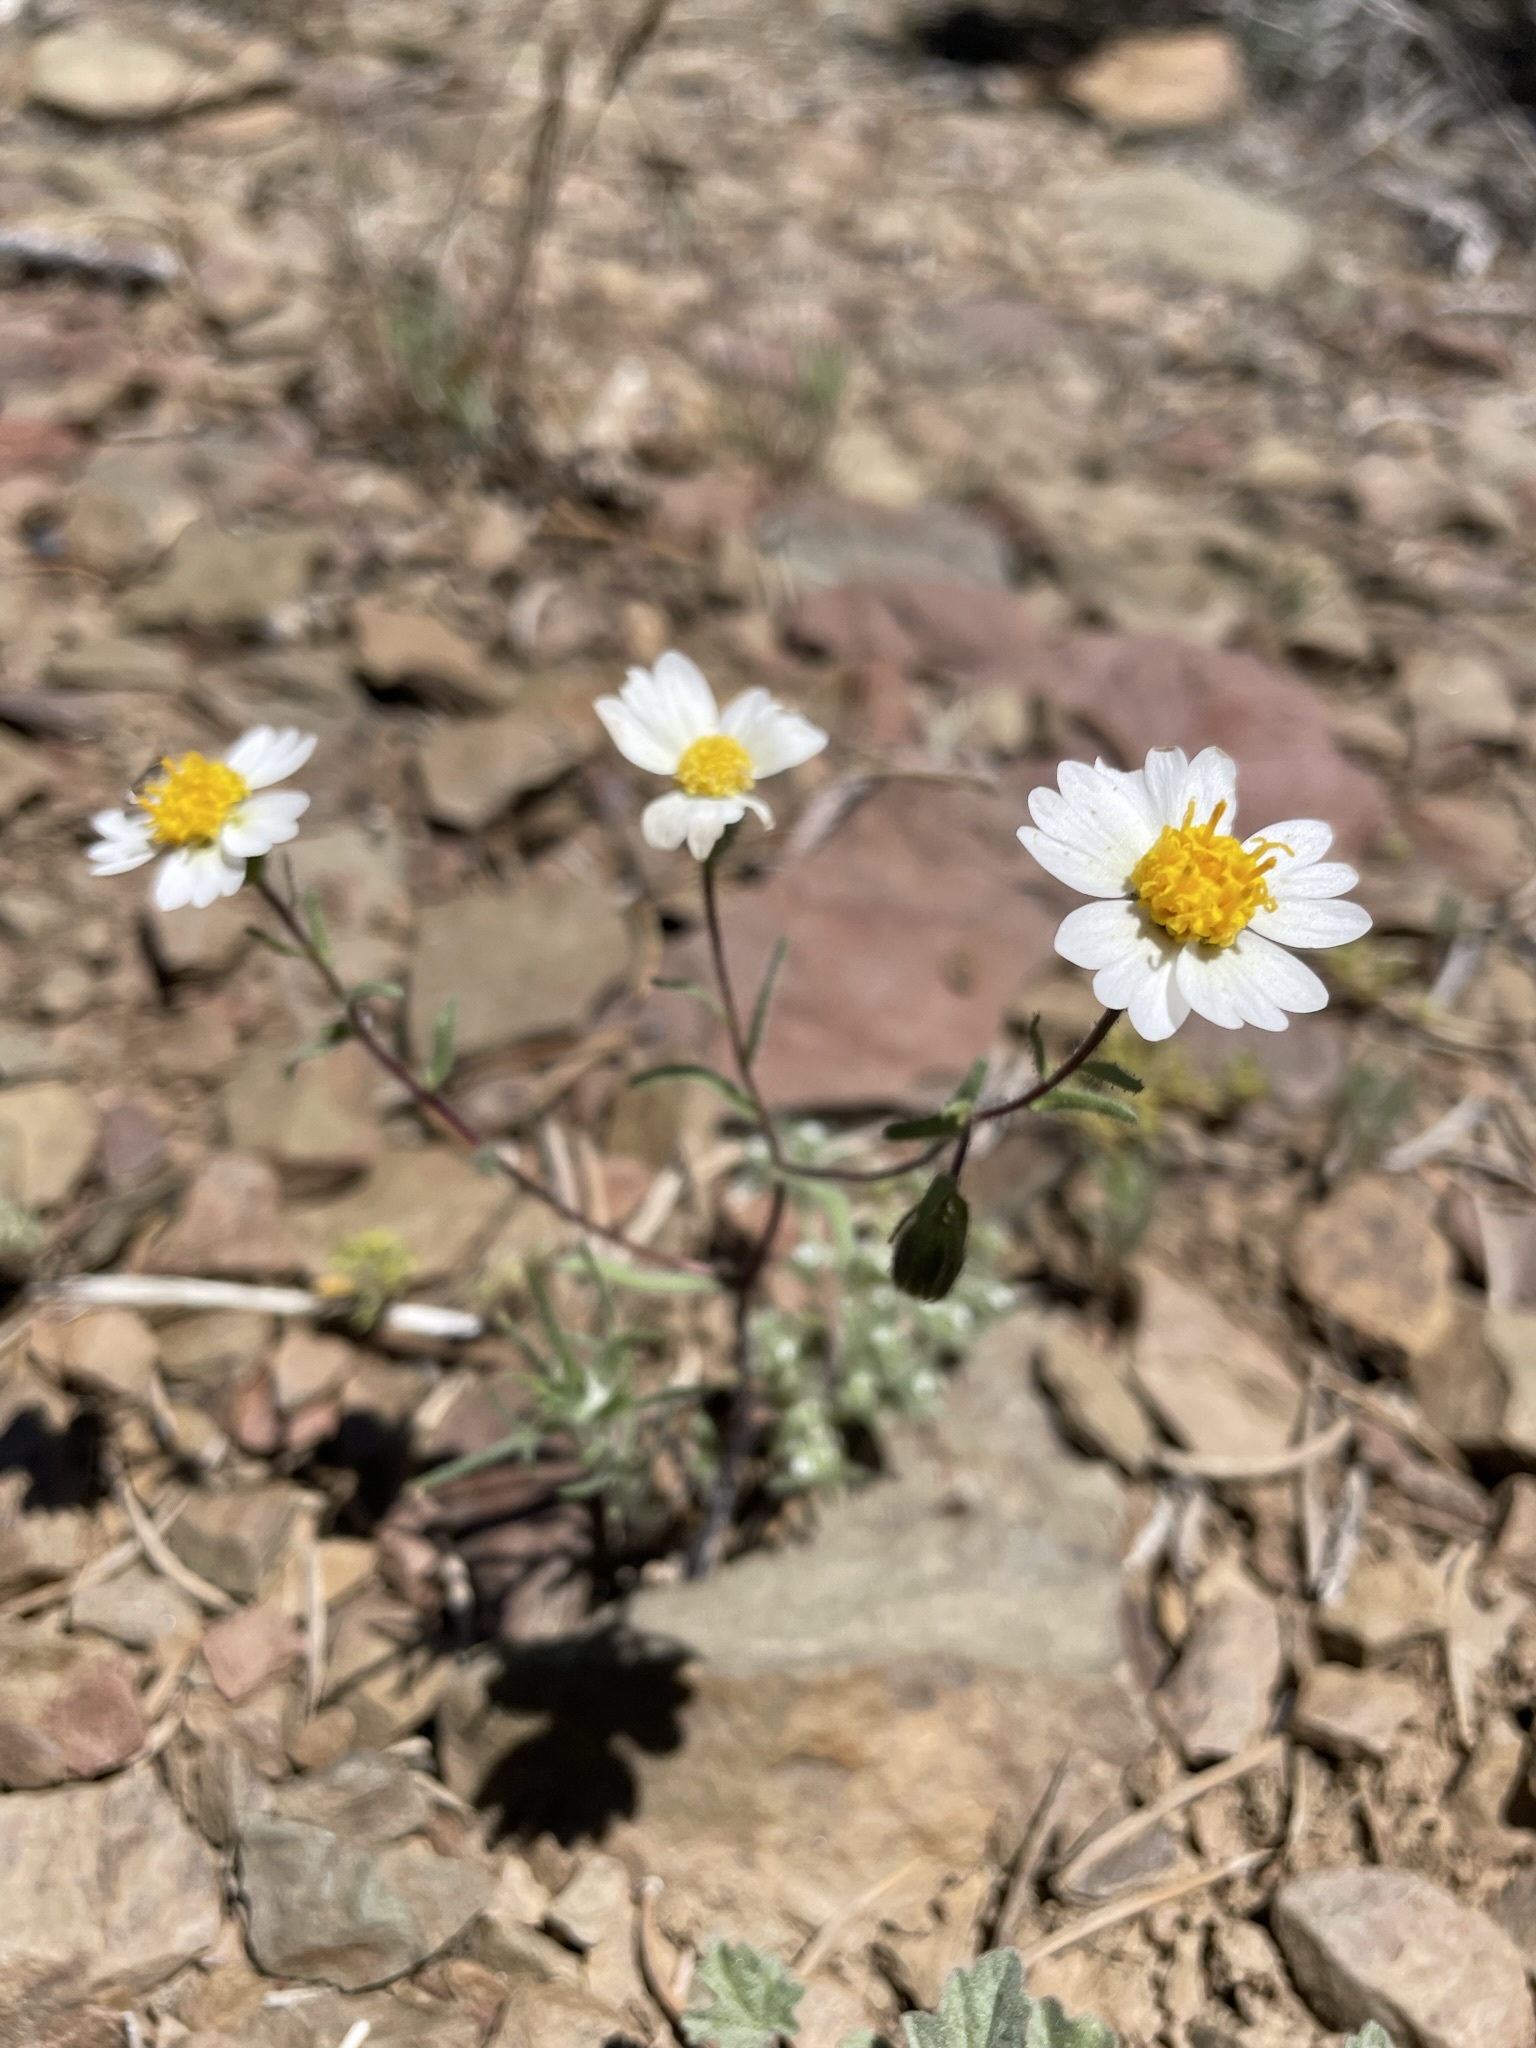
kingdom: Plantae
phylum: Tracheophyta
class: Magnoliopsida
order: Asterales
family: Asteraceae
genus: Layia
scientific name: Layia glandulosa
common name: White layia
